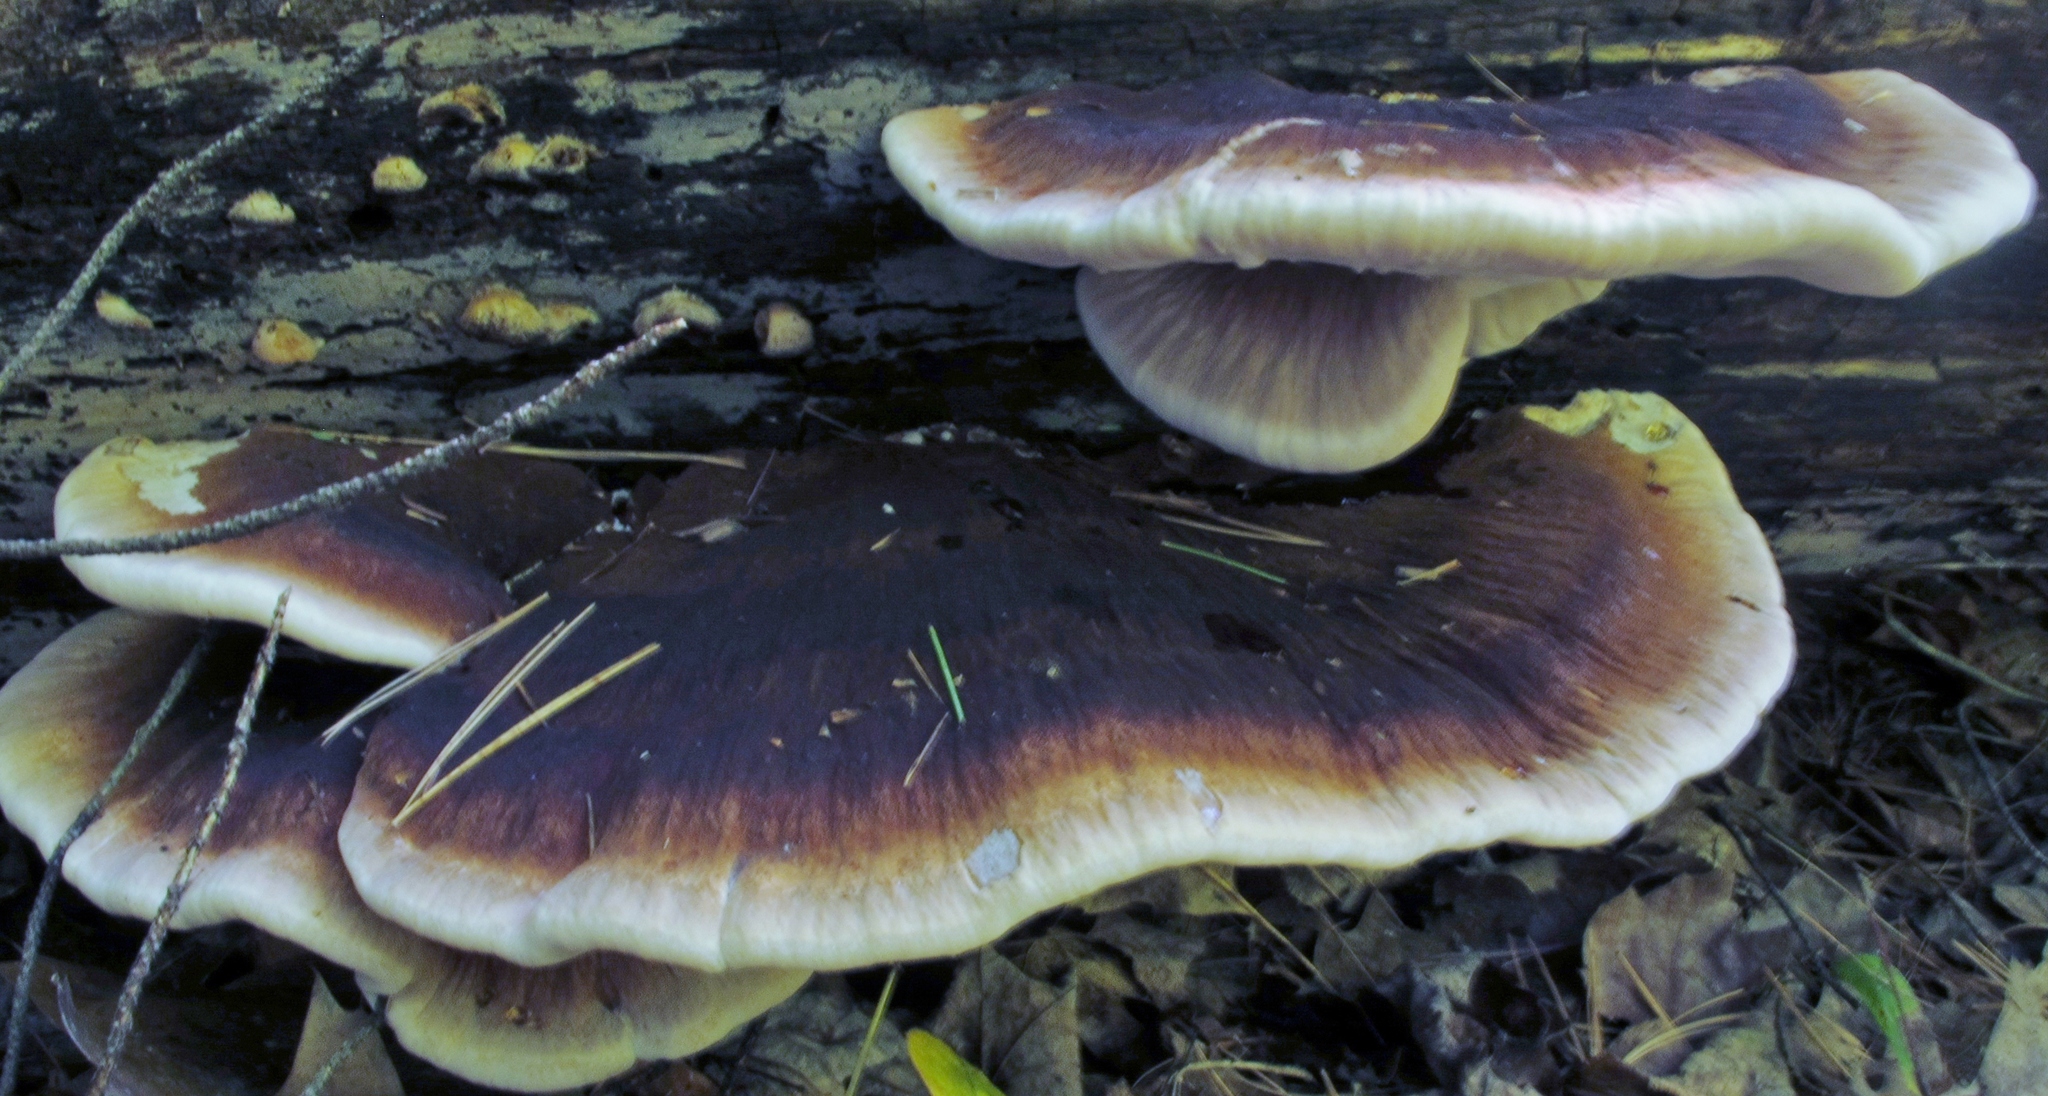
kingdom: Fungi
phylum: Basidiomycota
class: Agaricomycetes
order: Polyporales
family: Ischnodermataceae
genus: Ischnoderma
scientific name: Ischnoderma resinosum
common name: Resinous polypore
